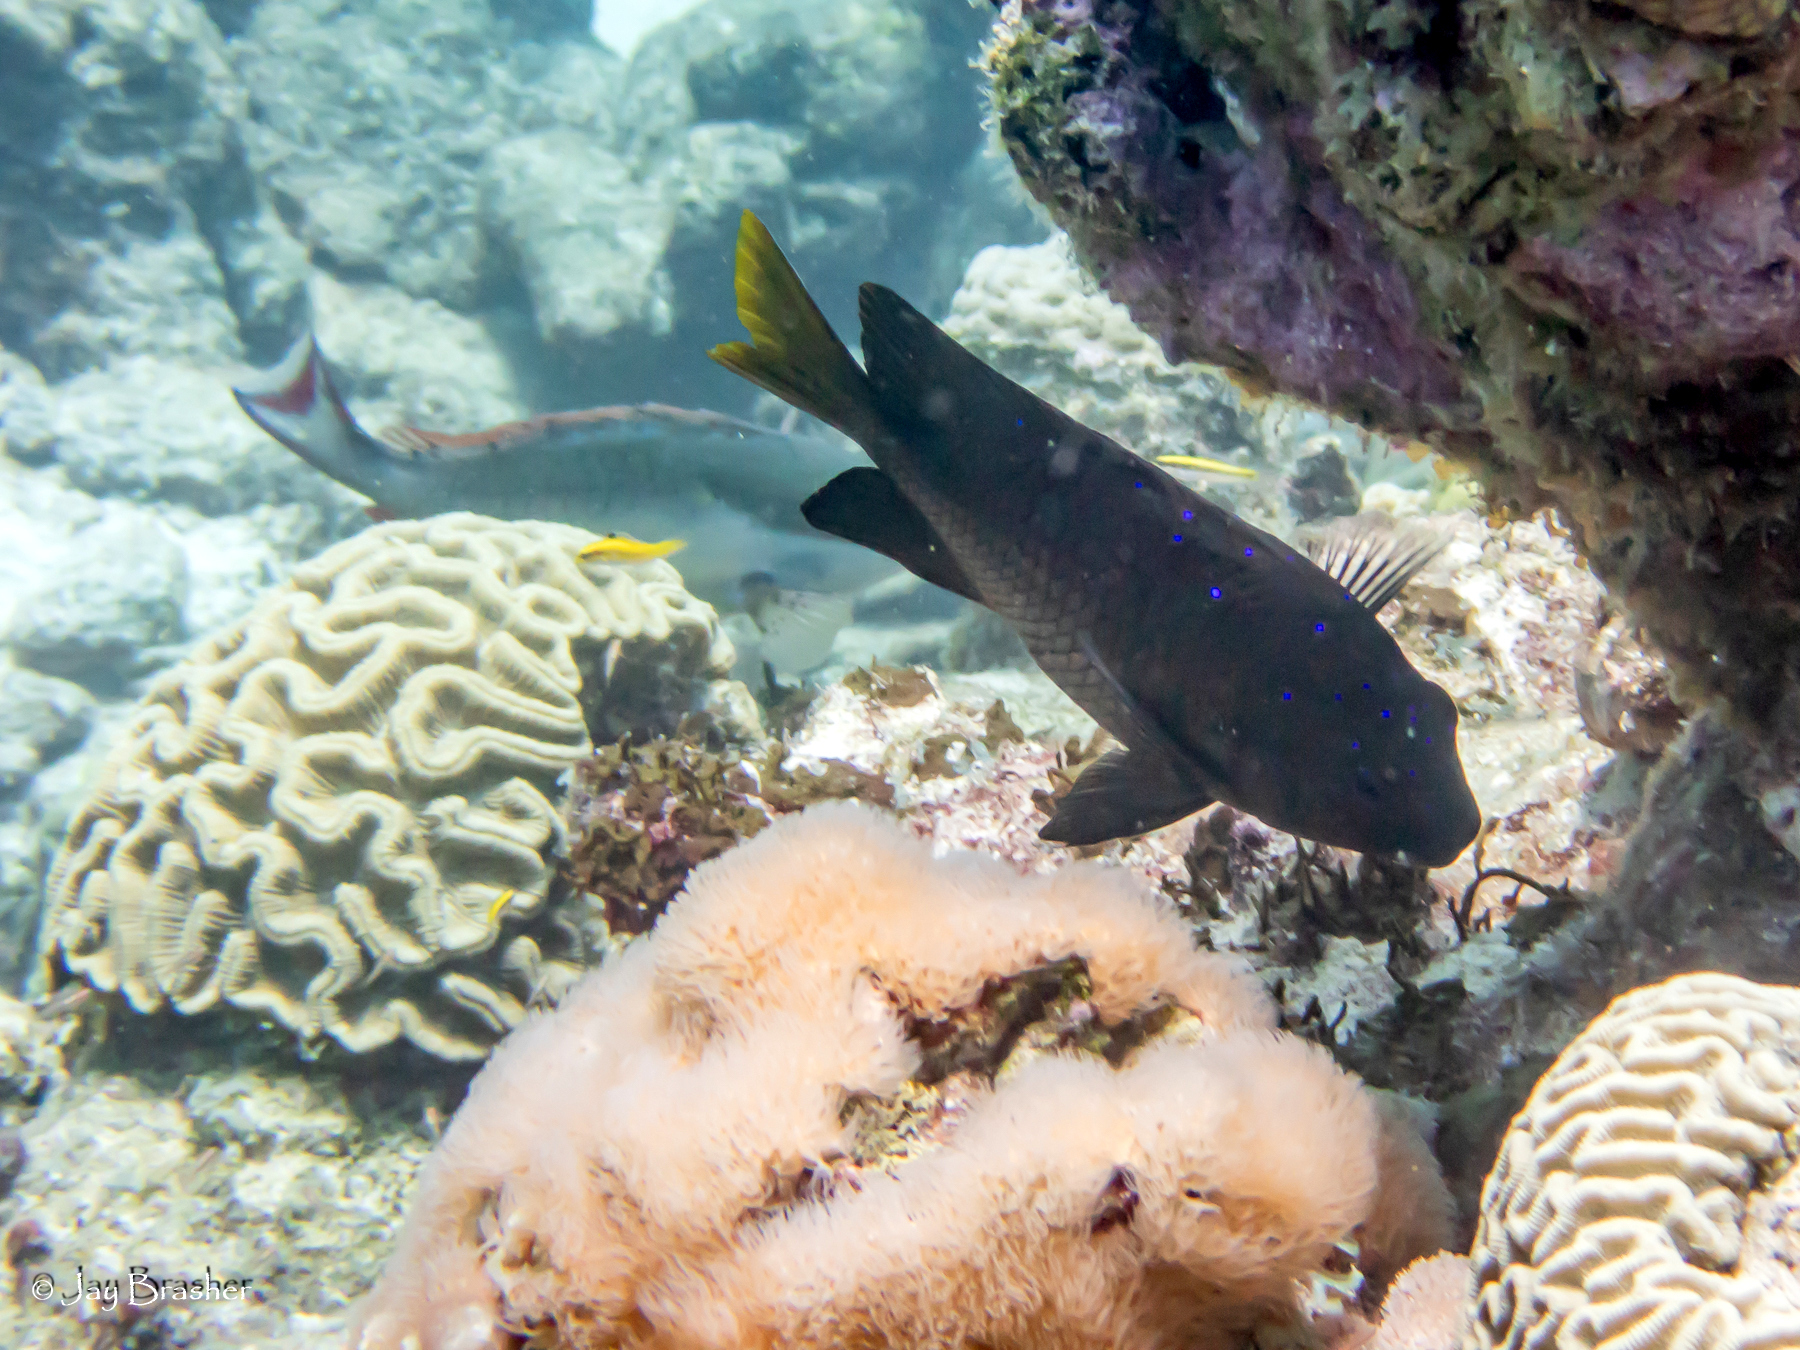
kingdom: Animalia
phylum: Chordata
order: Perciformes
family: Pomacentridae
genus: Microspathodon
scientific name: Microspathodon chrysurus
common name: Yellowtail damselfish
